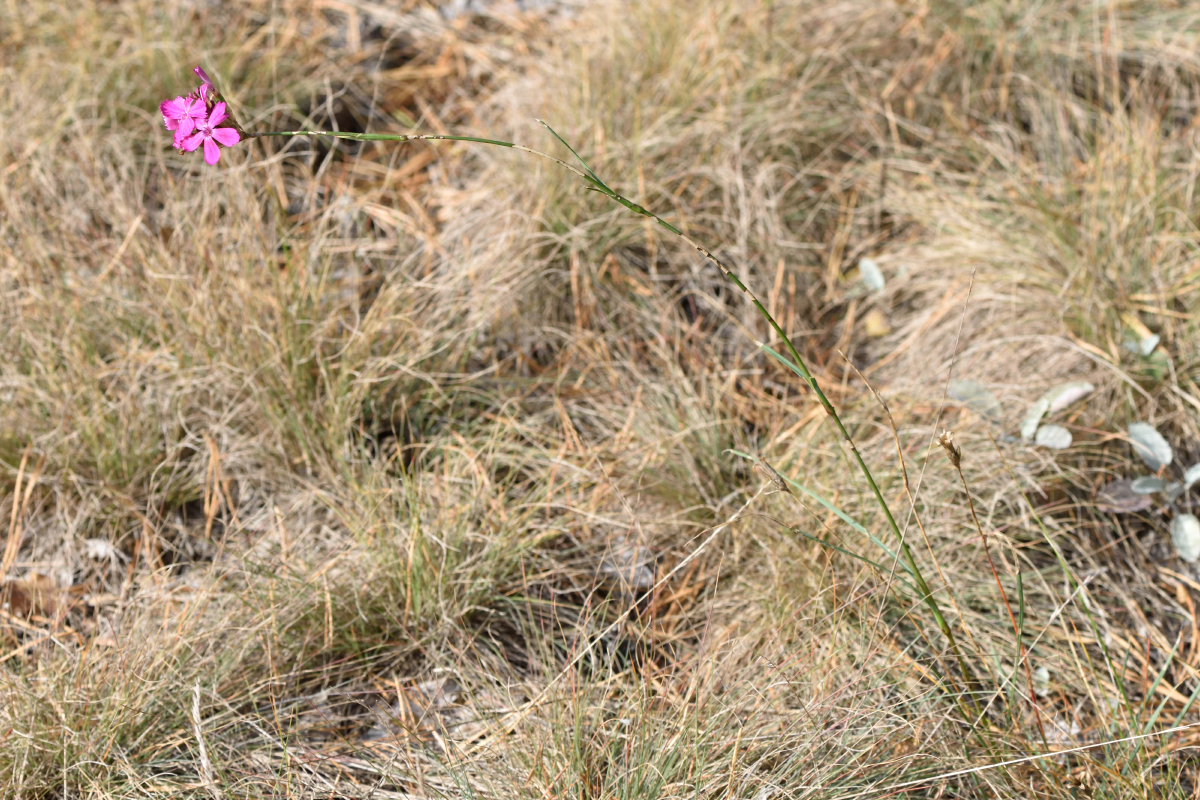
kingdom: Plantae
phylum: Tracheophyta
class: Magnoliopsida
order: Caryophyllales
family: Caryophyllaceae
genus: Dianthus
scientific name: Dianthus borbasii
